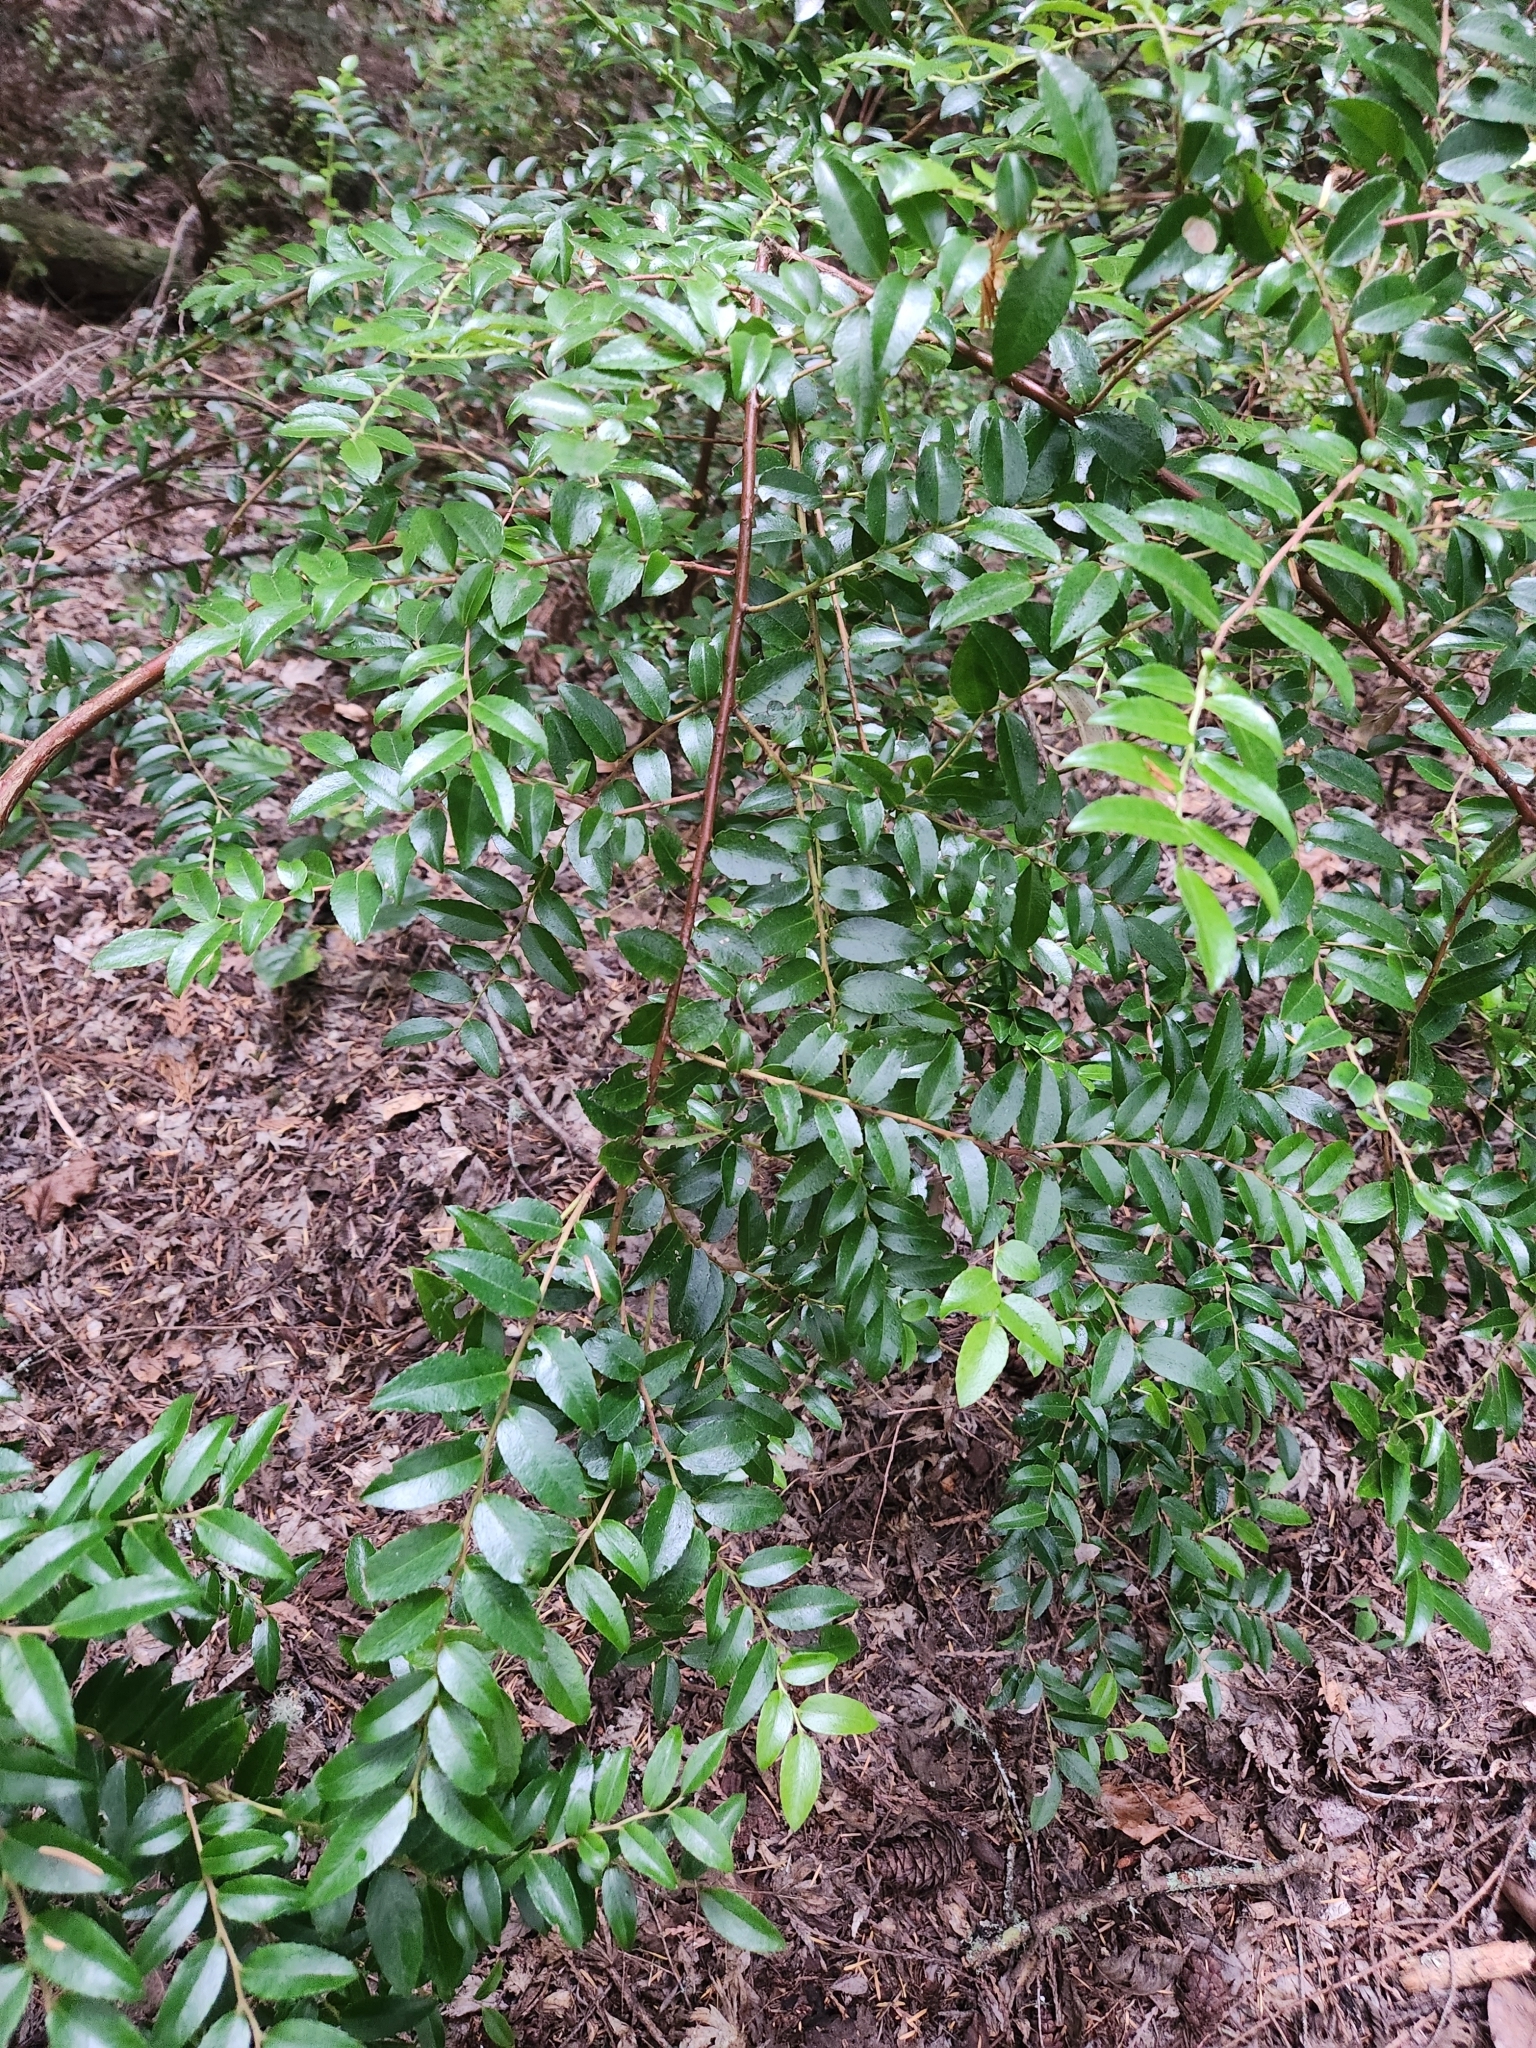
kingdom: Plantae
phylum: Tracheophyta
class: Magnoliopsida
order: Ericales
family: Ericaceae
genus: Vaccinium
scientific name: Vaccinium ovatum
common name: California-huckleberry
